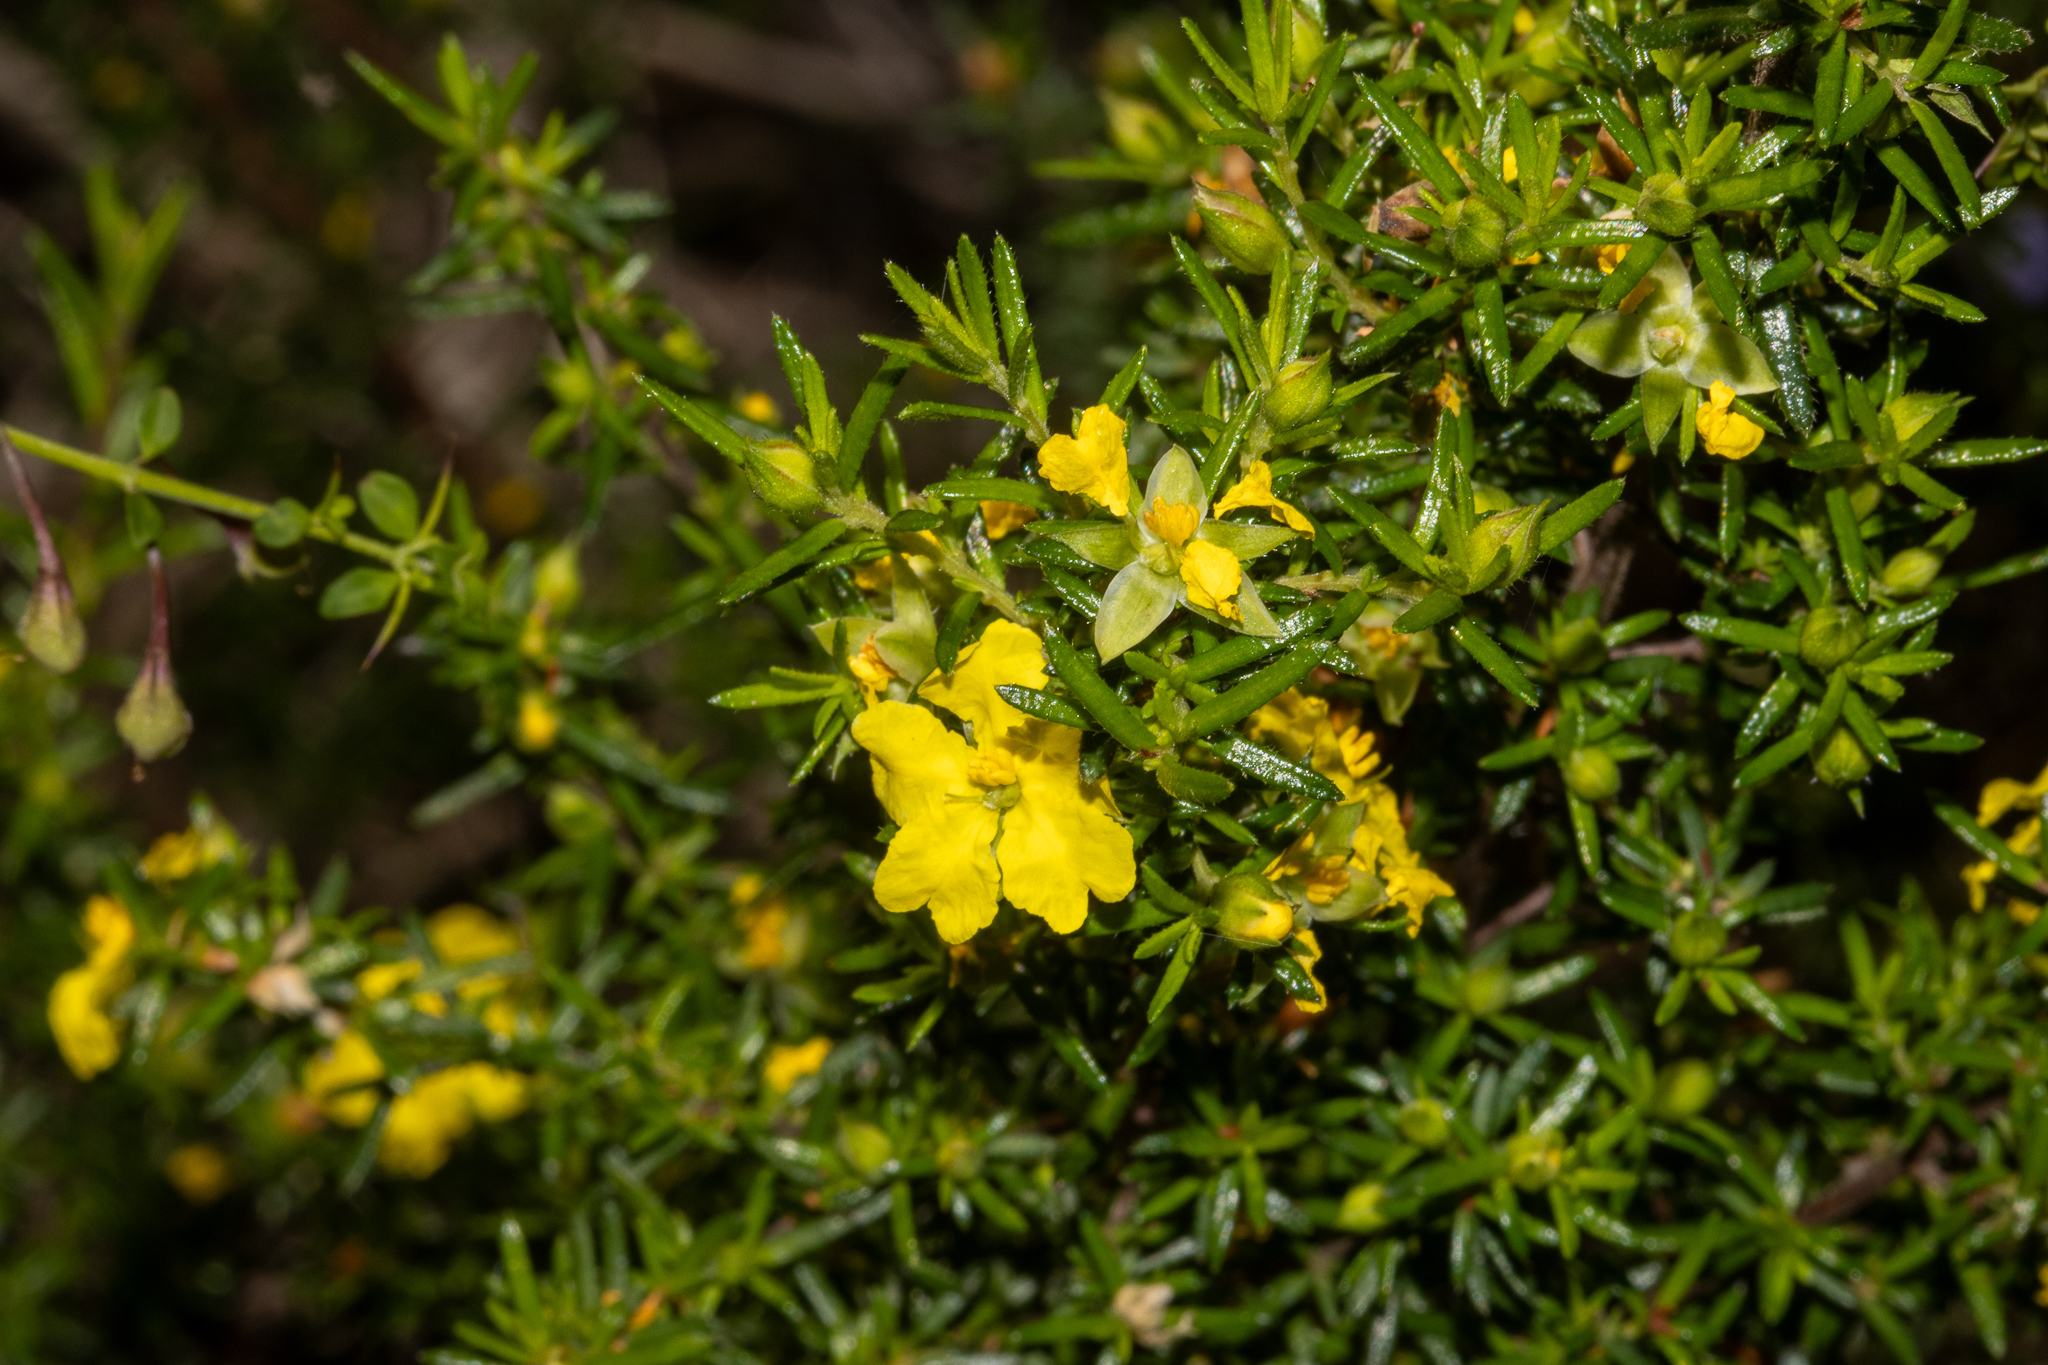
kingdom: Plantae
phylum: Tracheophyta
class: Magnoliopsida
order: Dilleniales
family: Dilleniaceae
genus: Hibbertia
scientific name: Hibbertia riparia
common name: Erect guinea-flower
